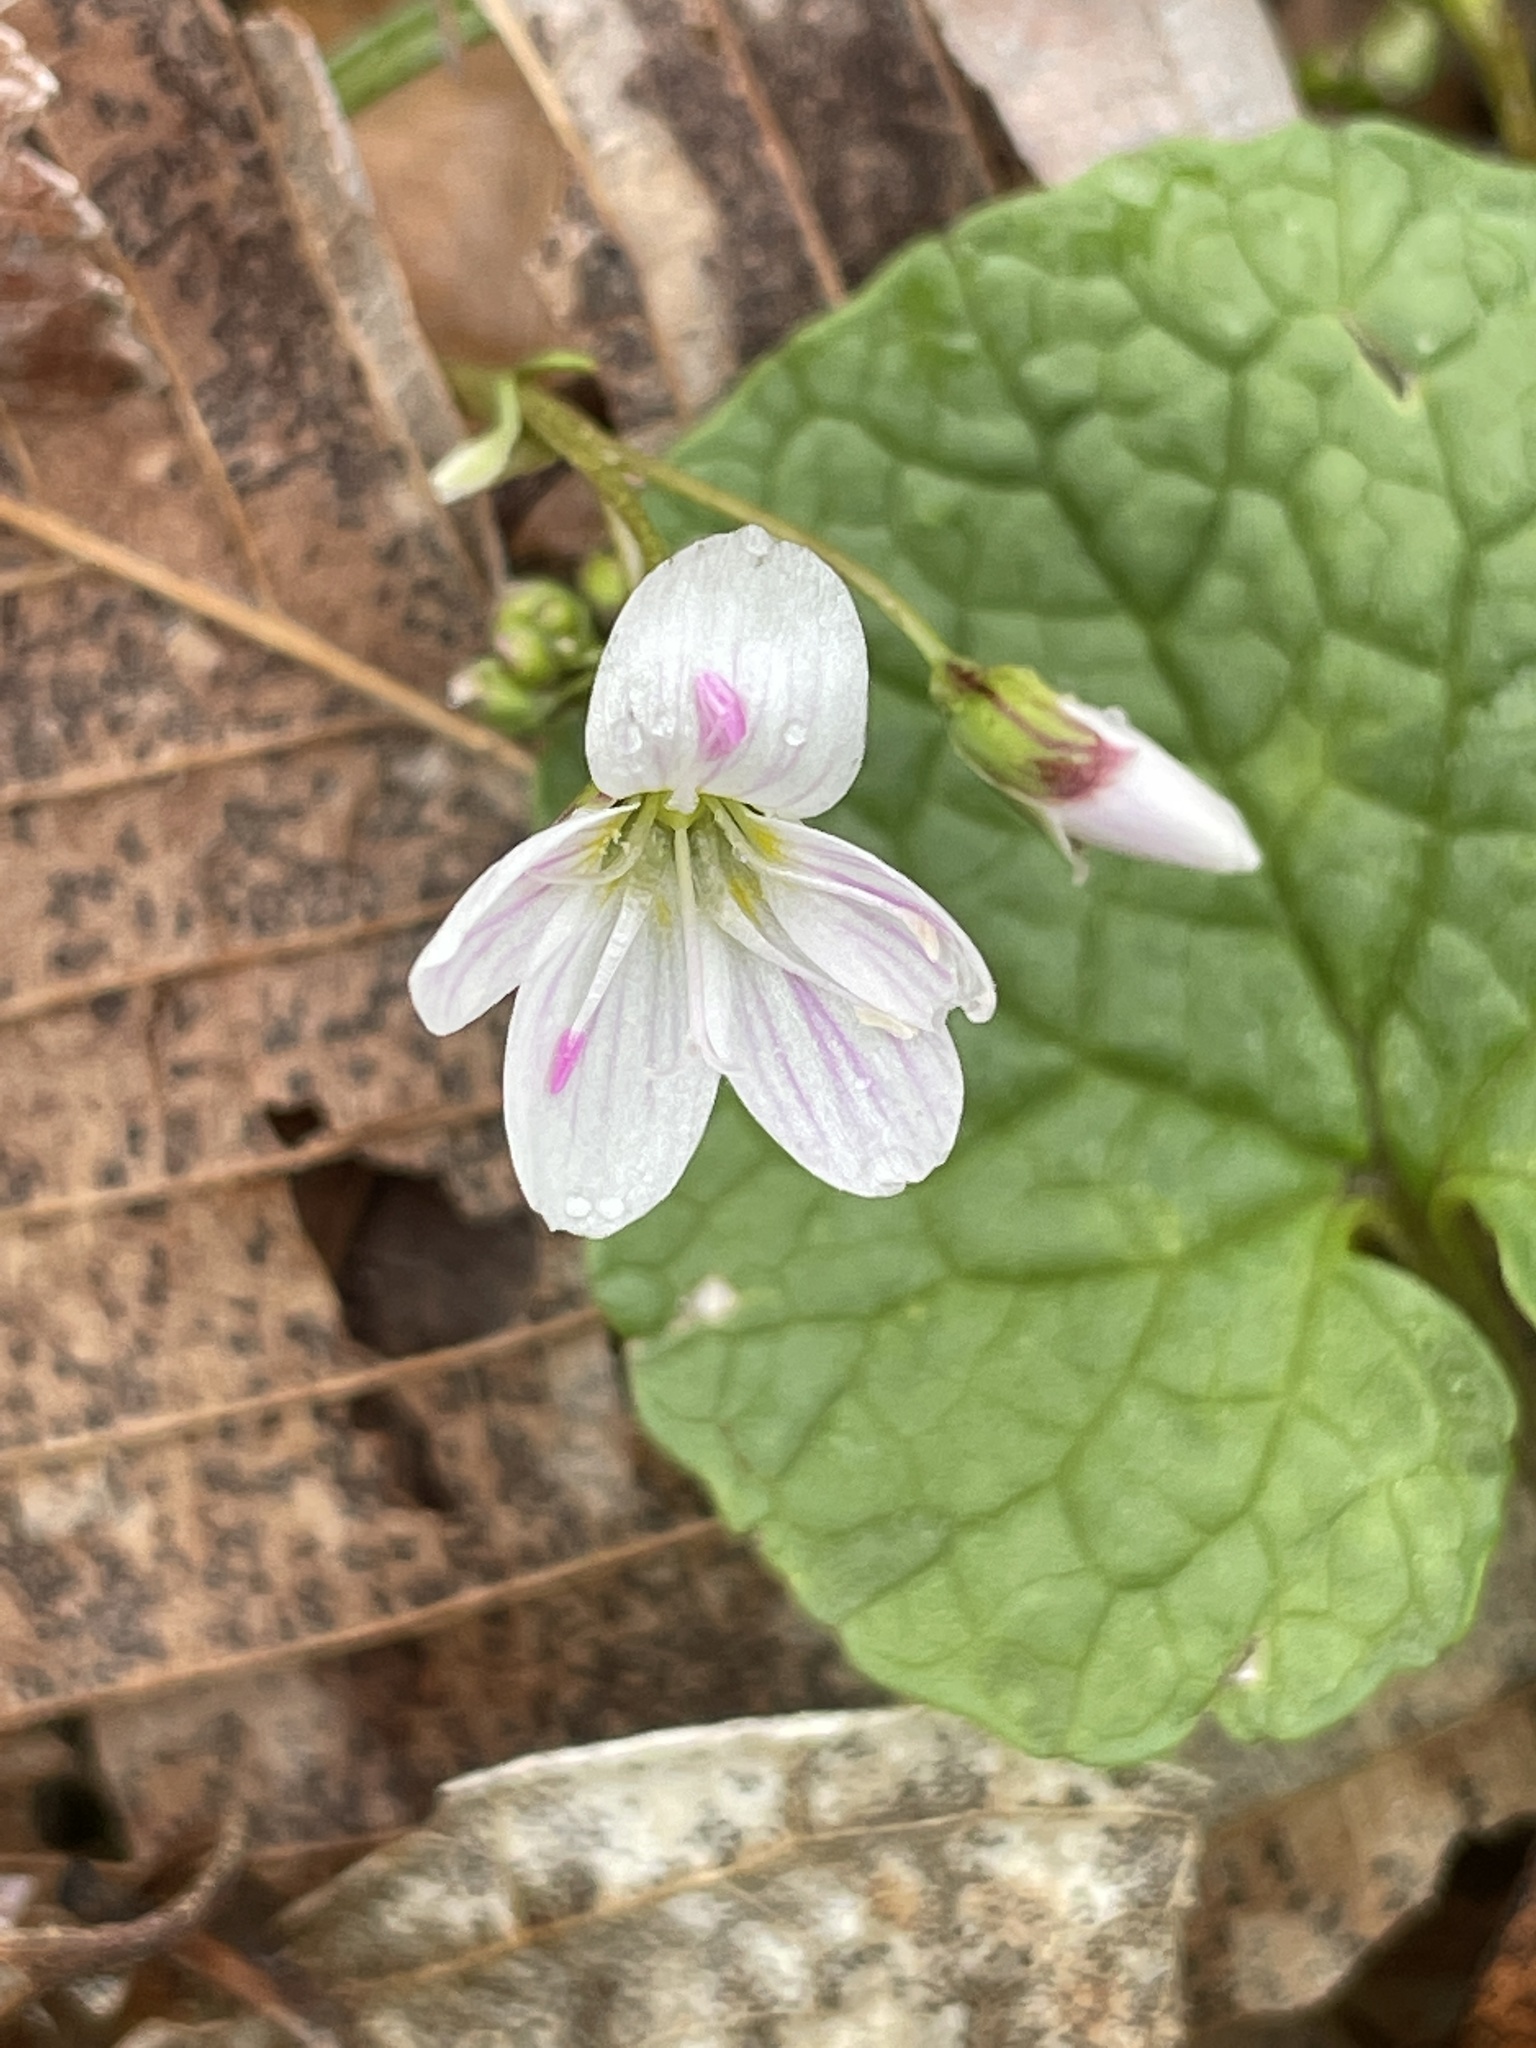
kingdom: Plantae
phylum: Tracheophyta
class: Magnoliopsida
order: Caryophyllales
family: Montiaceae
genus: Claytonia
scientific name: Claytonia virginica
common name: Virginia springbeauty
